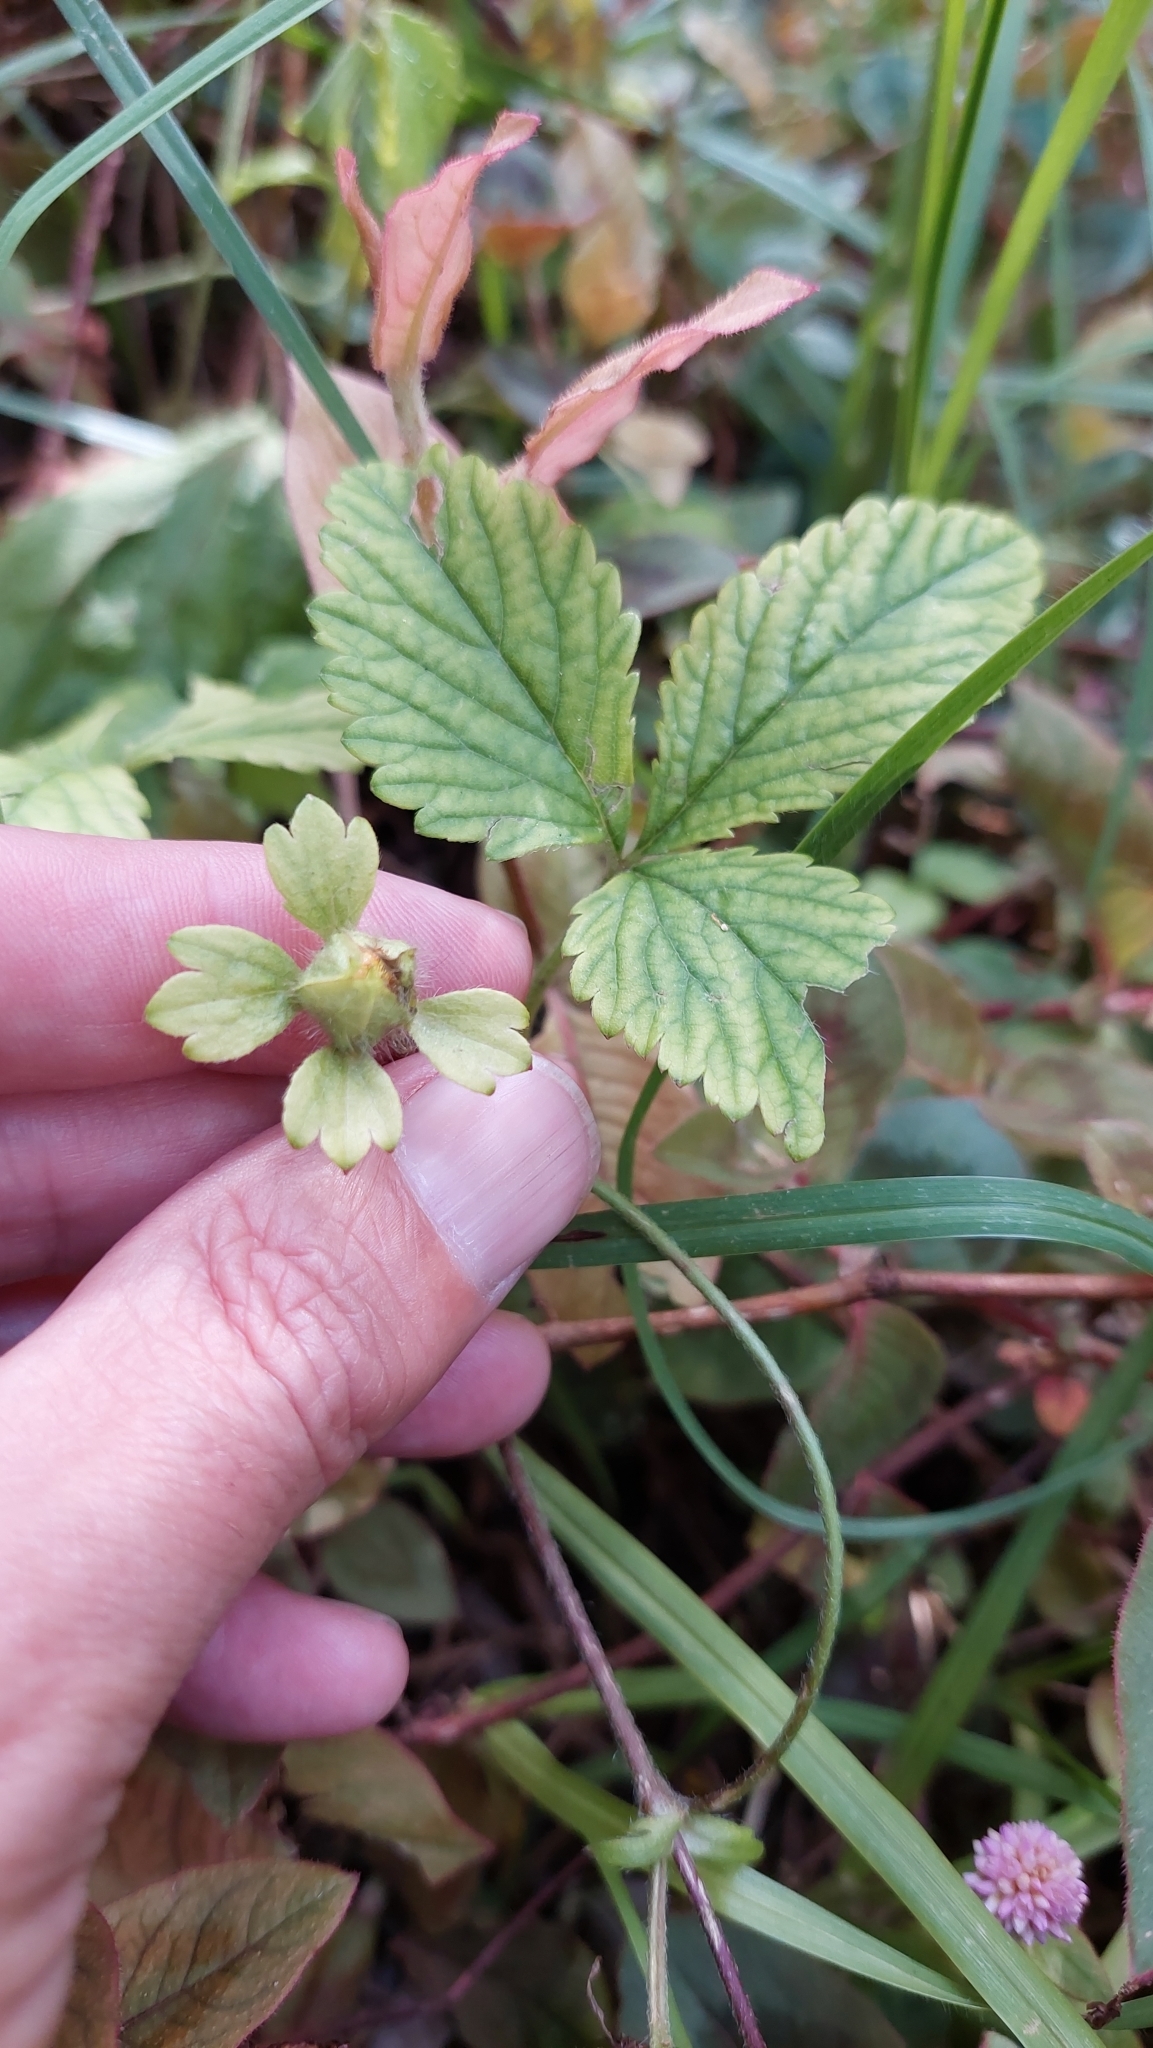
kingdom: Plantae
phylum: Tracheophyta
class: Magnoliopsida
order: Rosales
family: Rosaceae
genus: Potentilla
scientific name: Potentilla indica
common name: Yellow-flowered strawberry
